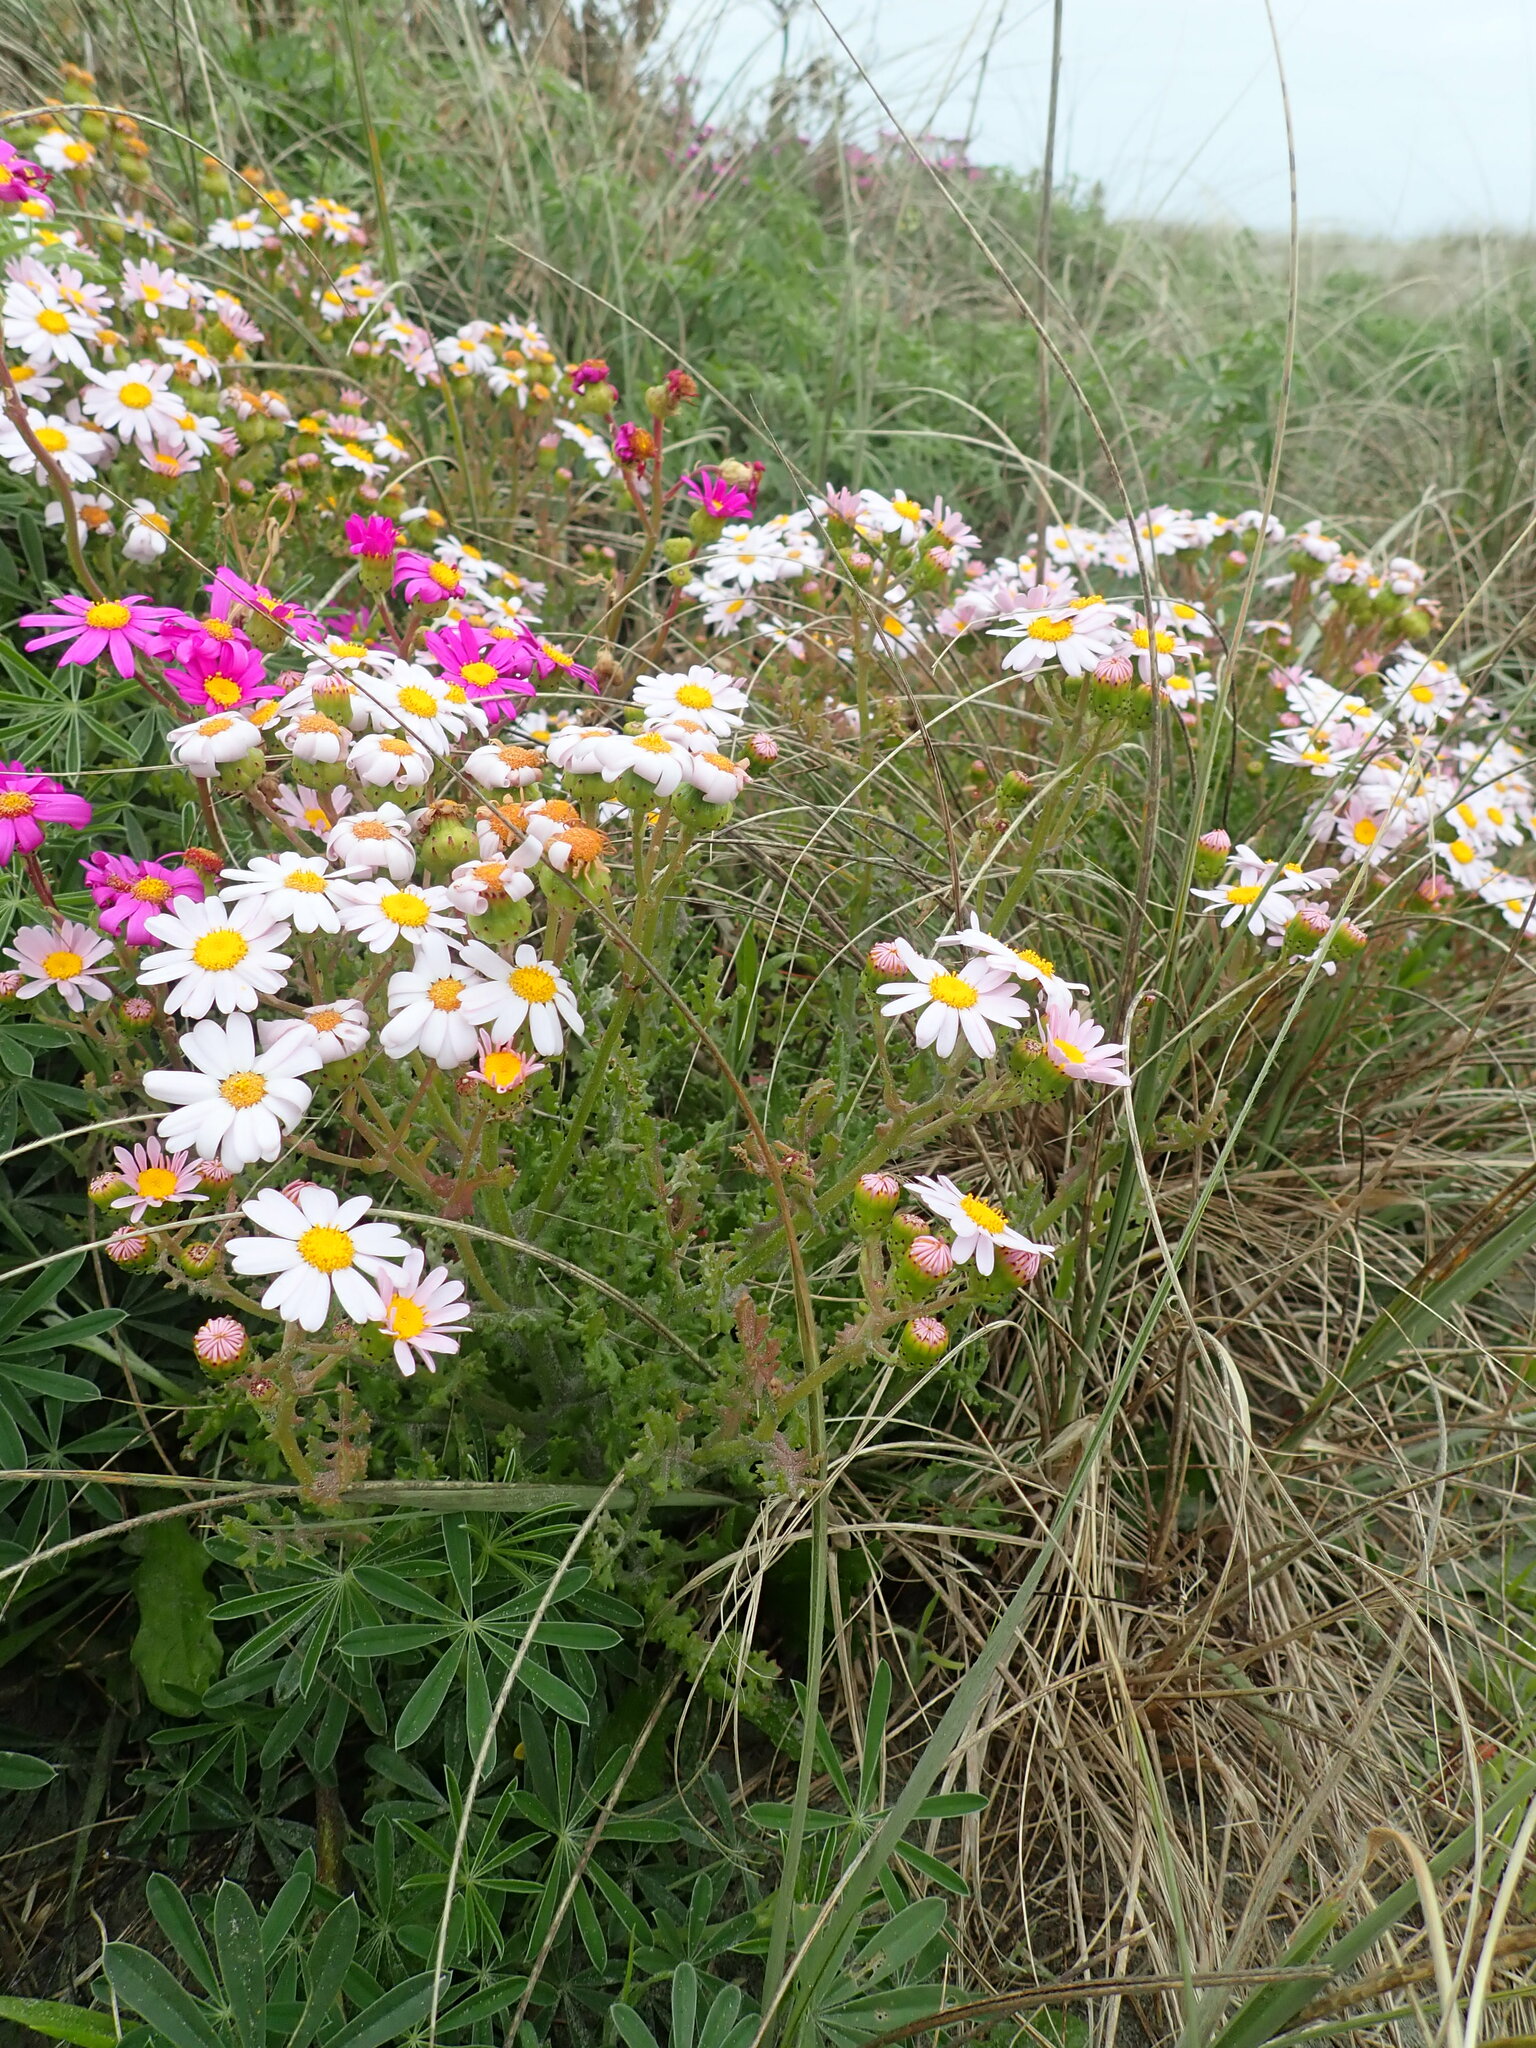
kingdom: Plantae
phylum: Tracheophyta
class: Magnoliopsida
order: Asterales
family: Asteraceae
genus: Senecio
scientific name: Senecio elegans
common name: Purple groundsel
